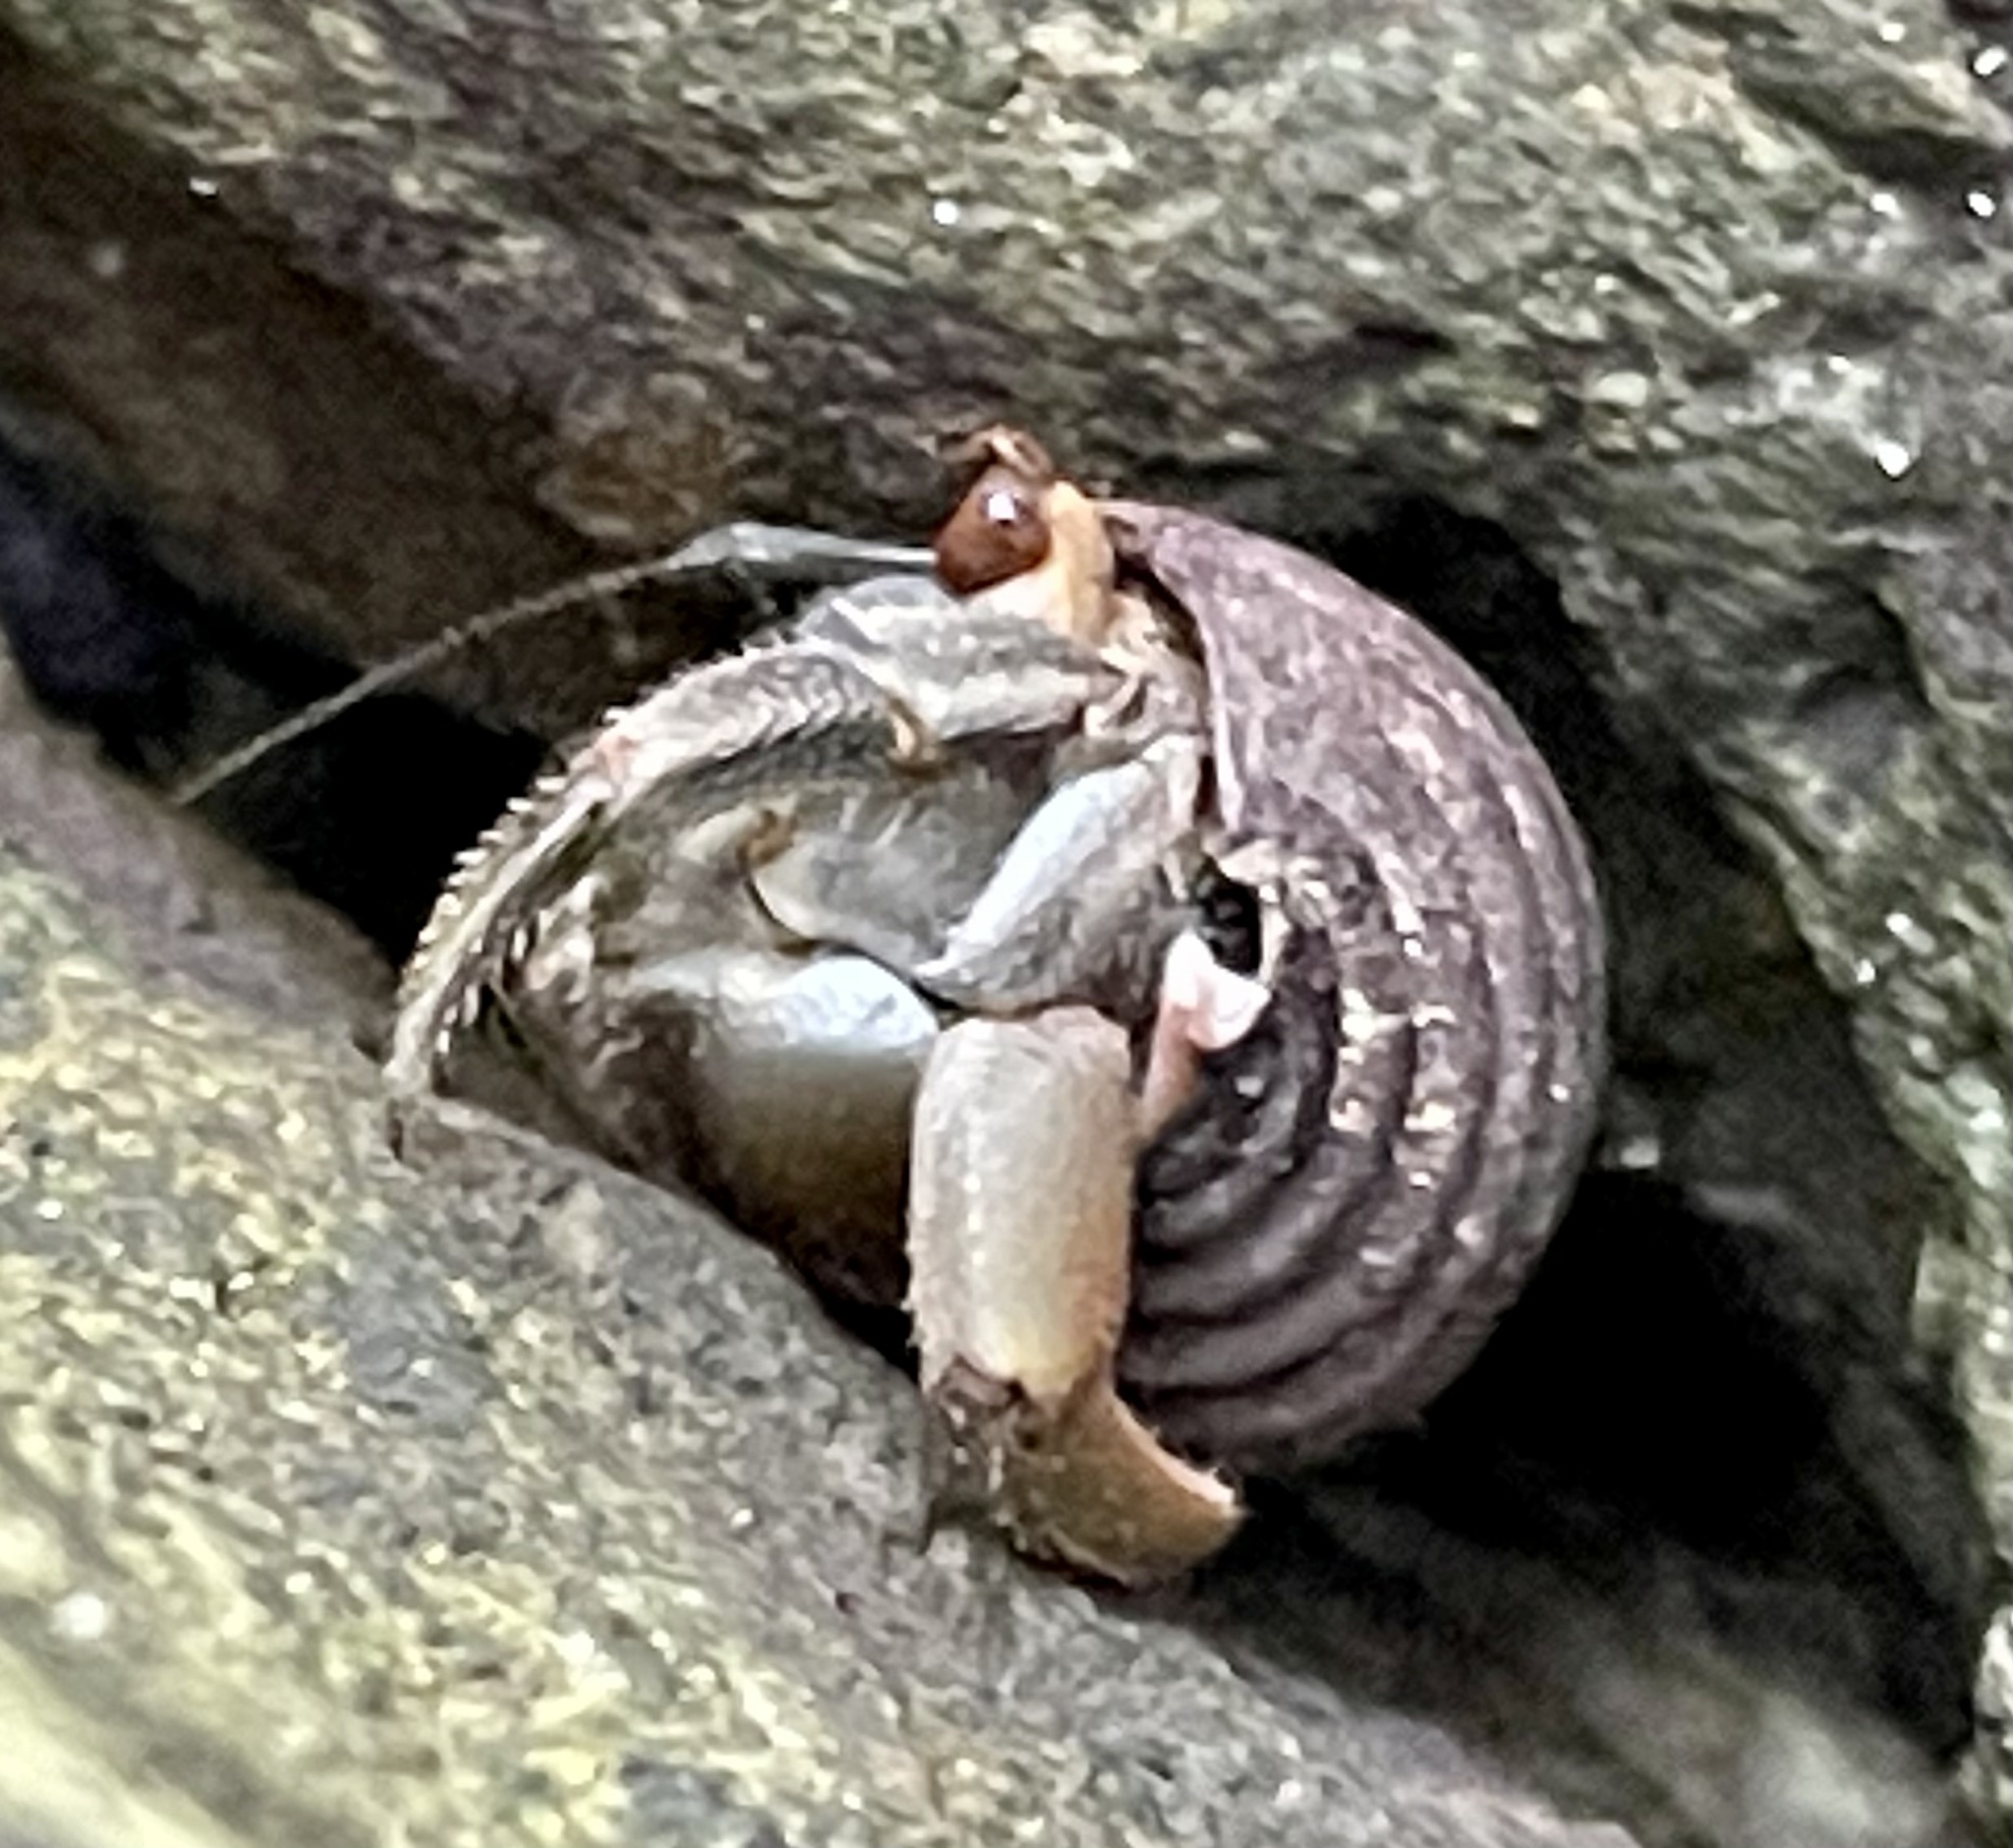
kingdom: Animalia
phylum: Arthropoda
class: Malacostraca
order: Decapoda
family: Coenobitidae
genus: Coenobita
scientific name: Coenobita compressus
